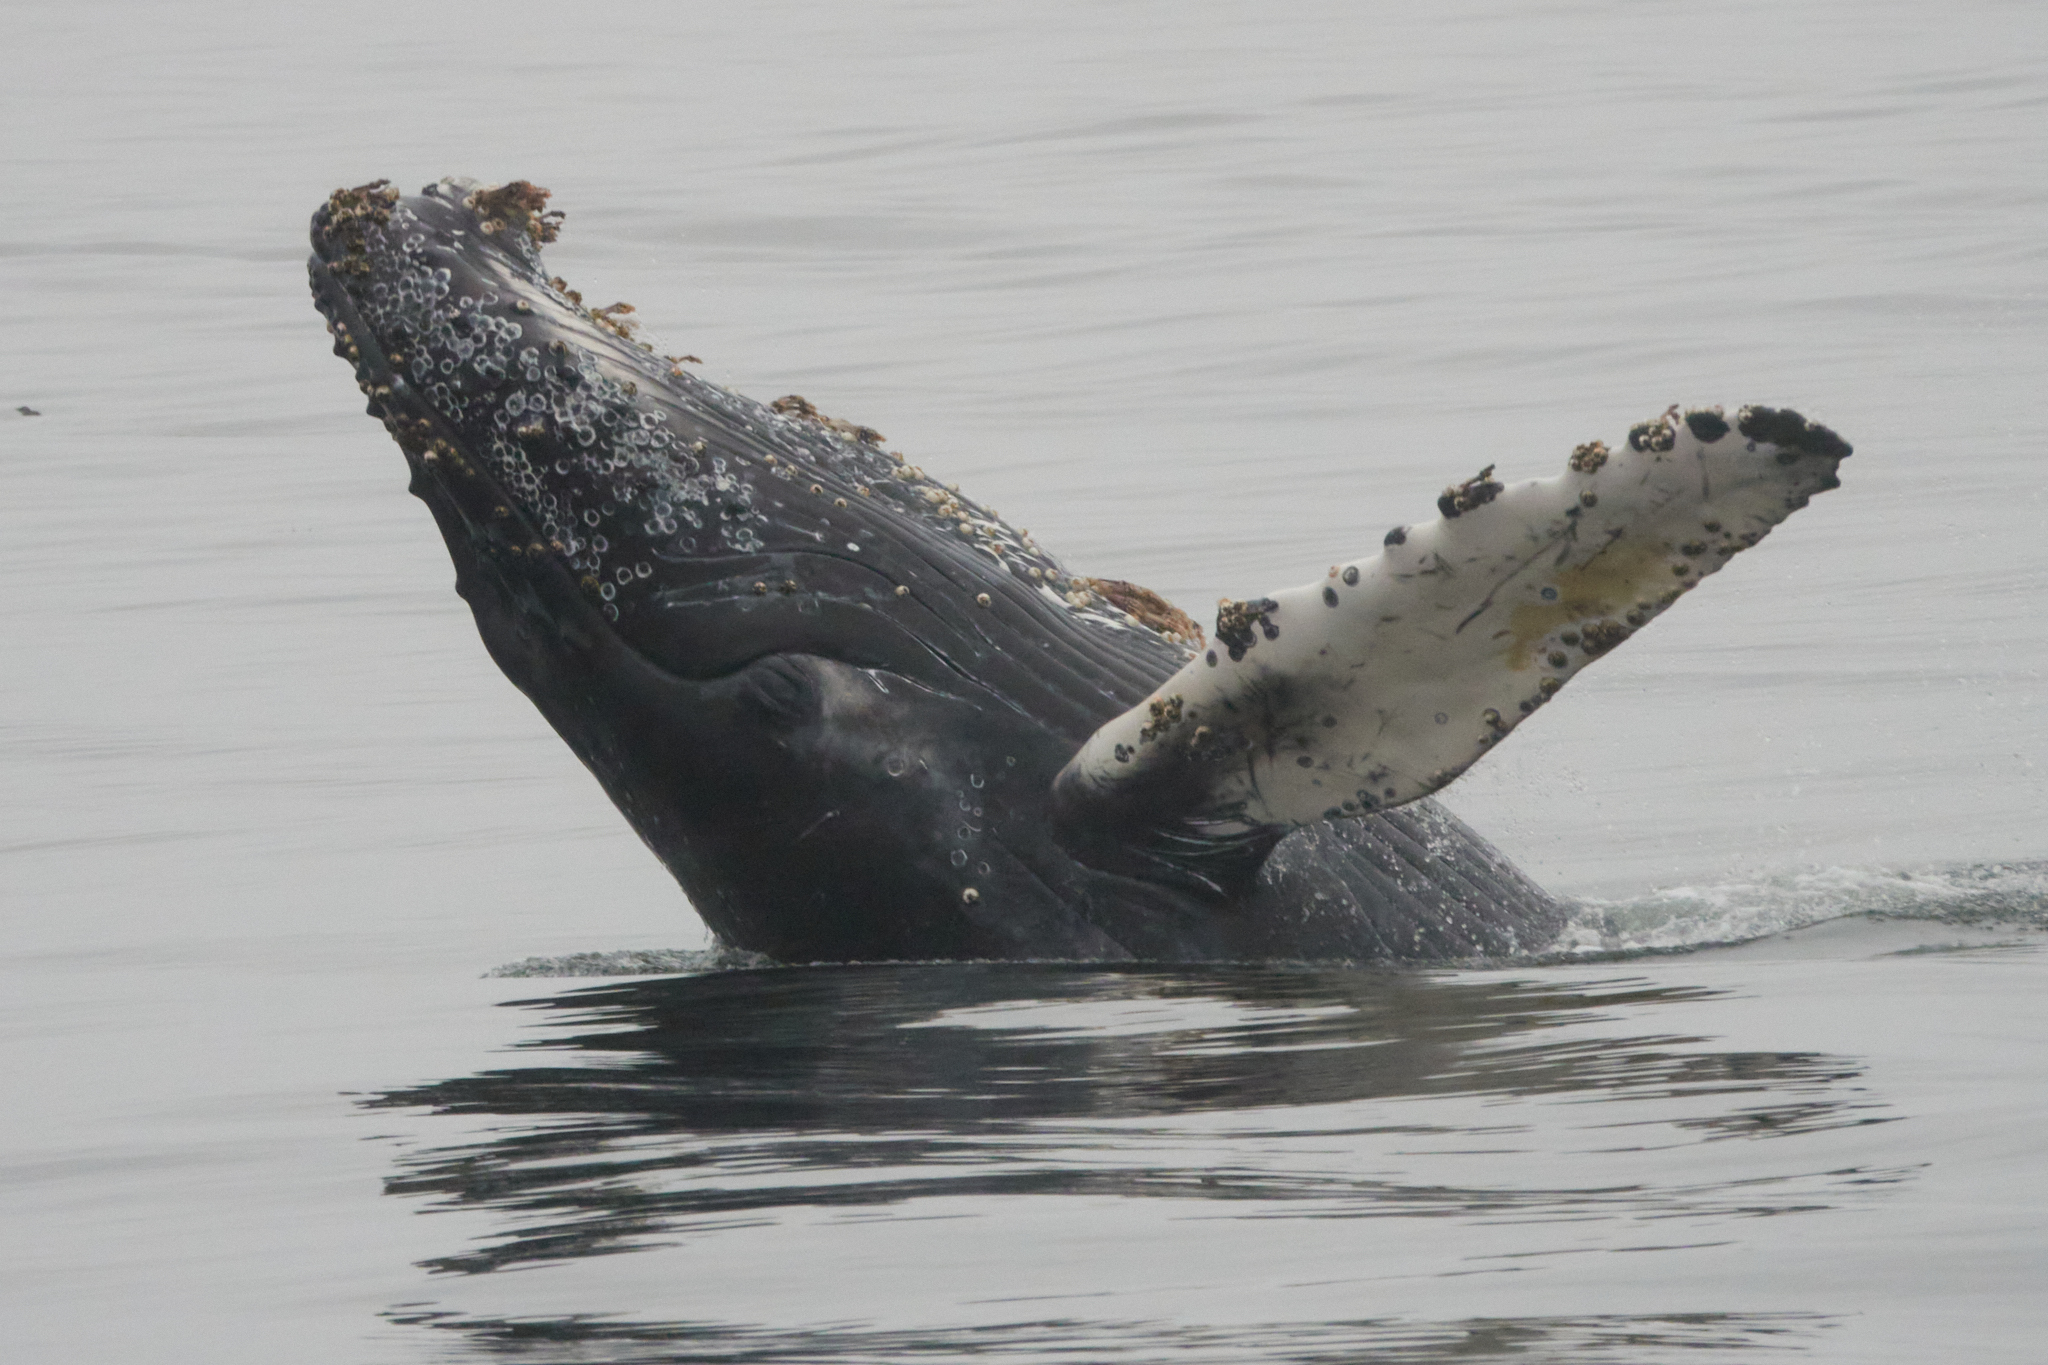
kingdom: Animalia
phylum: Chordata
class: Mammalia
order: Cetacea
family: Balaenopteridae
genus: Megaptera
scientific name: Megaptera novaeangliae
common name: Humpback whale
